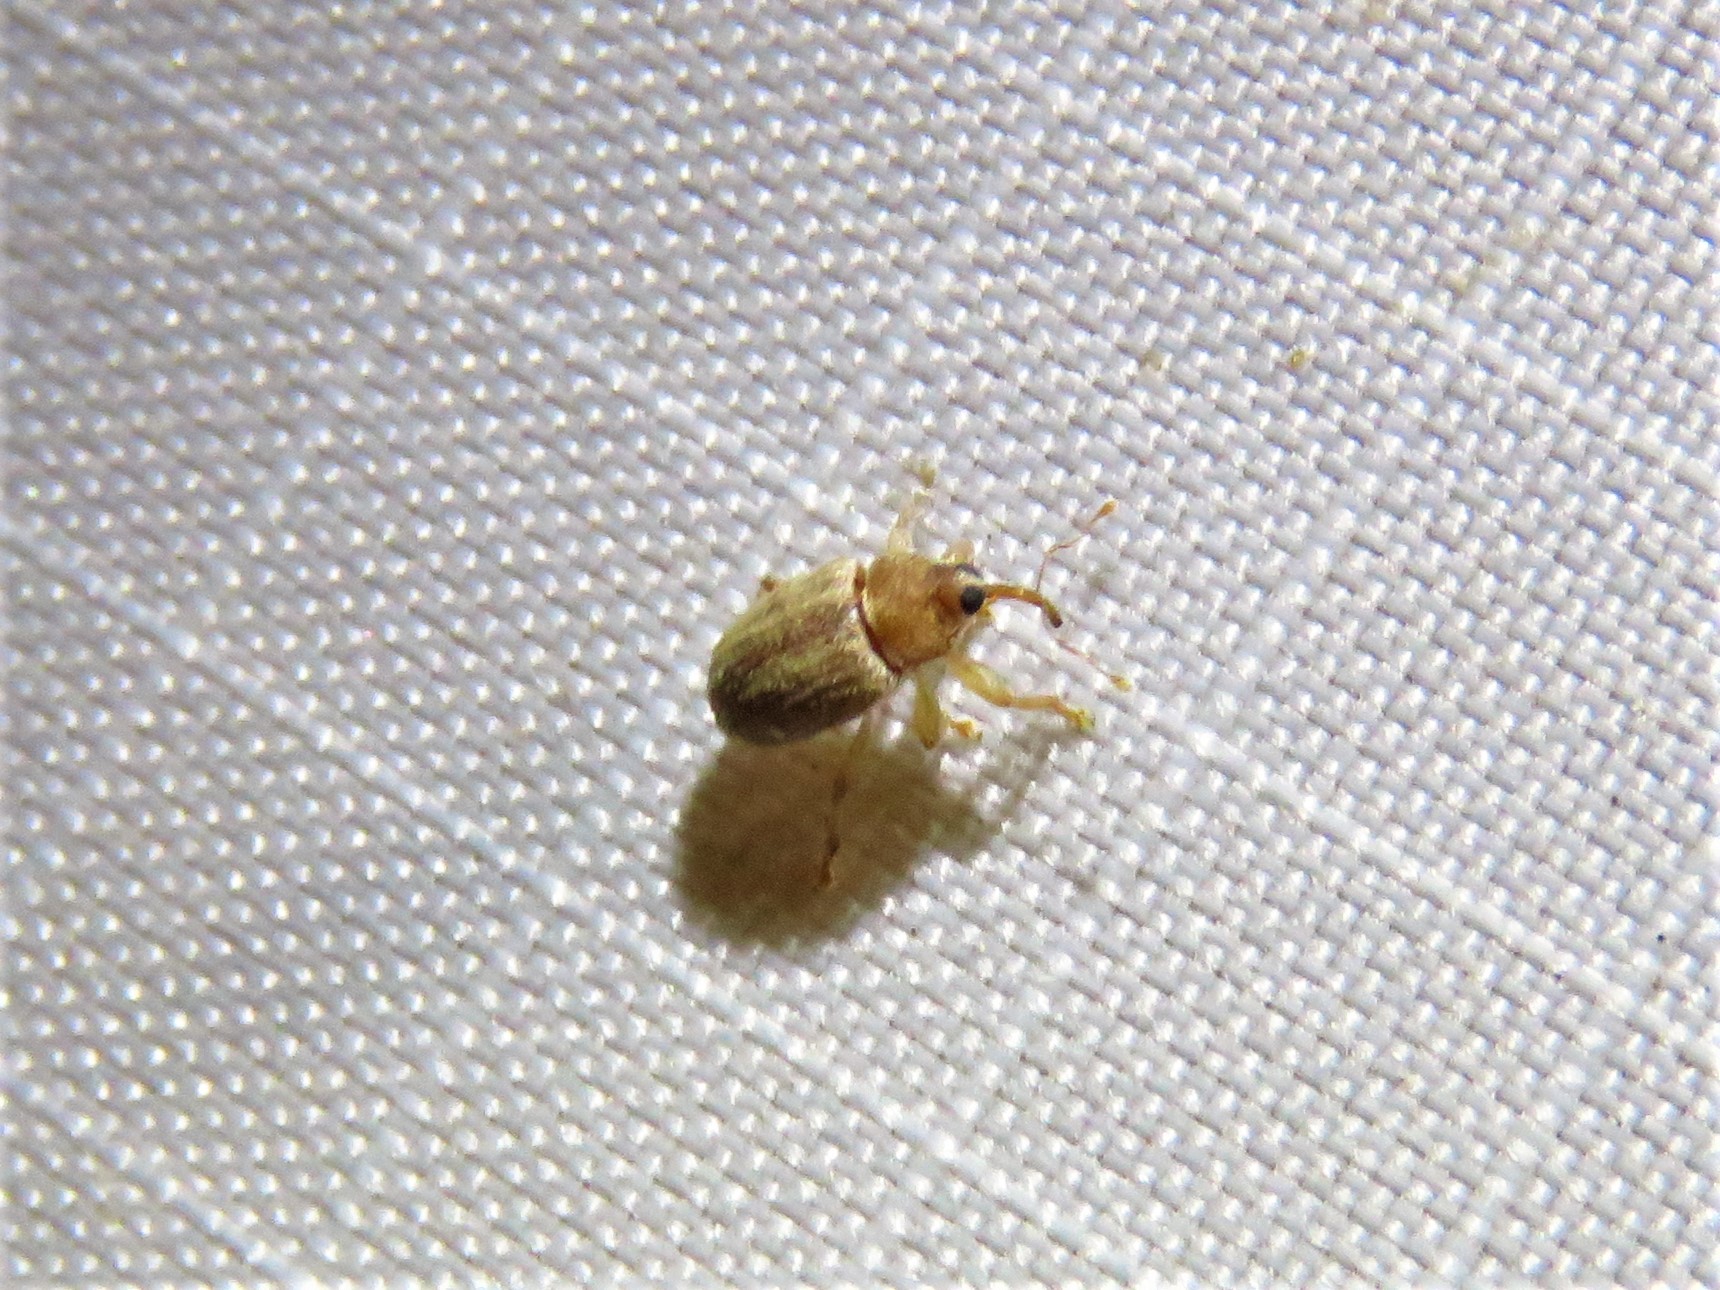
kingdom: Animalia
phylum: Arthropoda
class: Insecta
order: Coleoptera
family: Curculionidae
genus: Lignyodes
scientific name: Lignyodes helvolus
